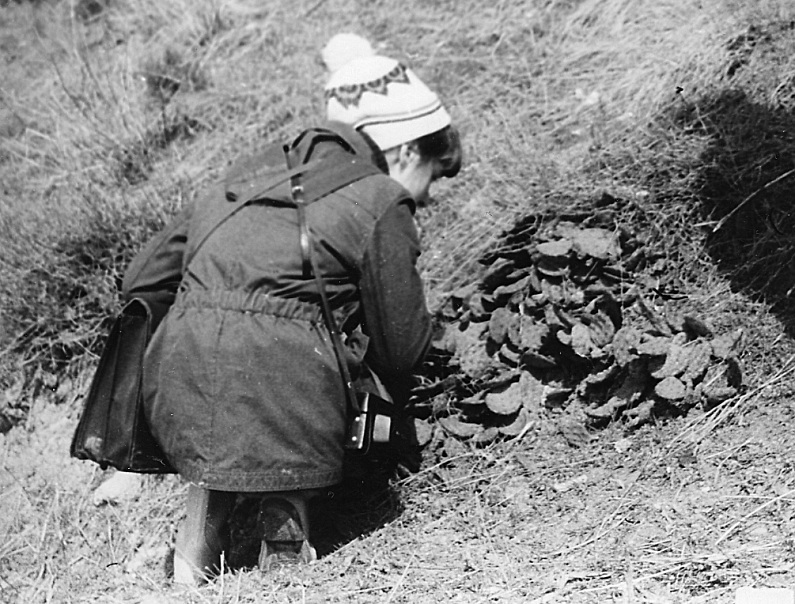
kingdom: Plantae
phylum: Tracheophyta
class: Magnoliopsida
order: Caryophyllales
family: Cactaceae
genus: Opuntia
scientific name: Opuntia humifusa
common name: Eastern prickly-pear
